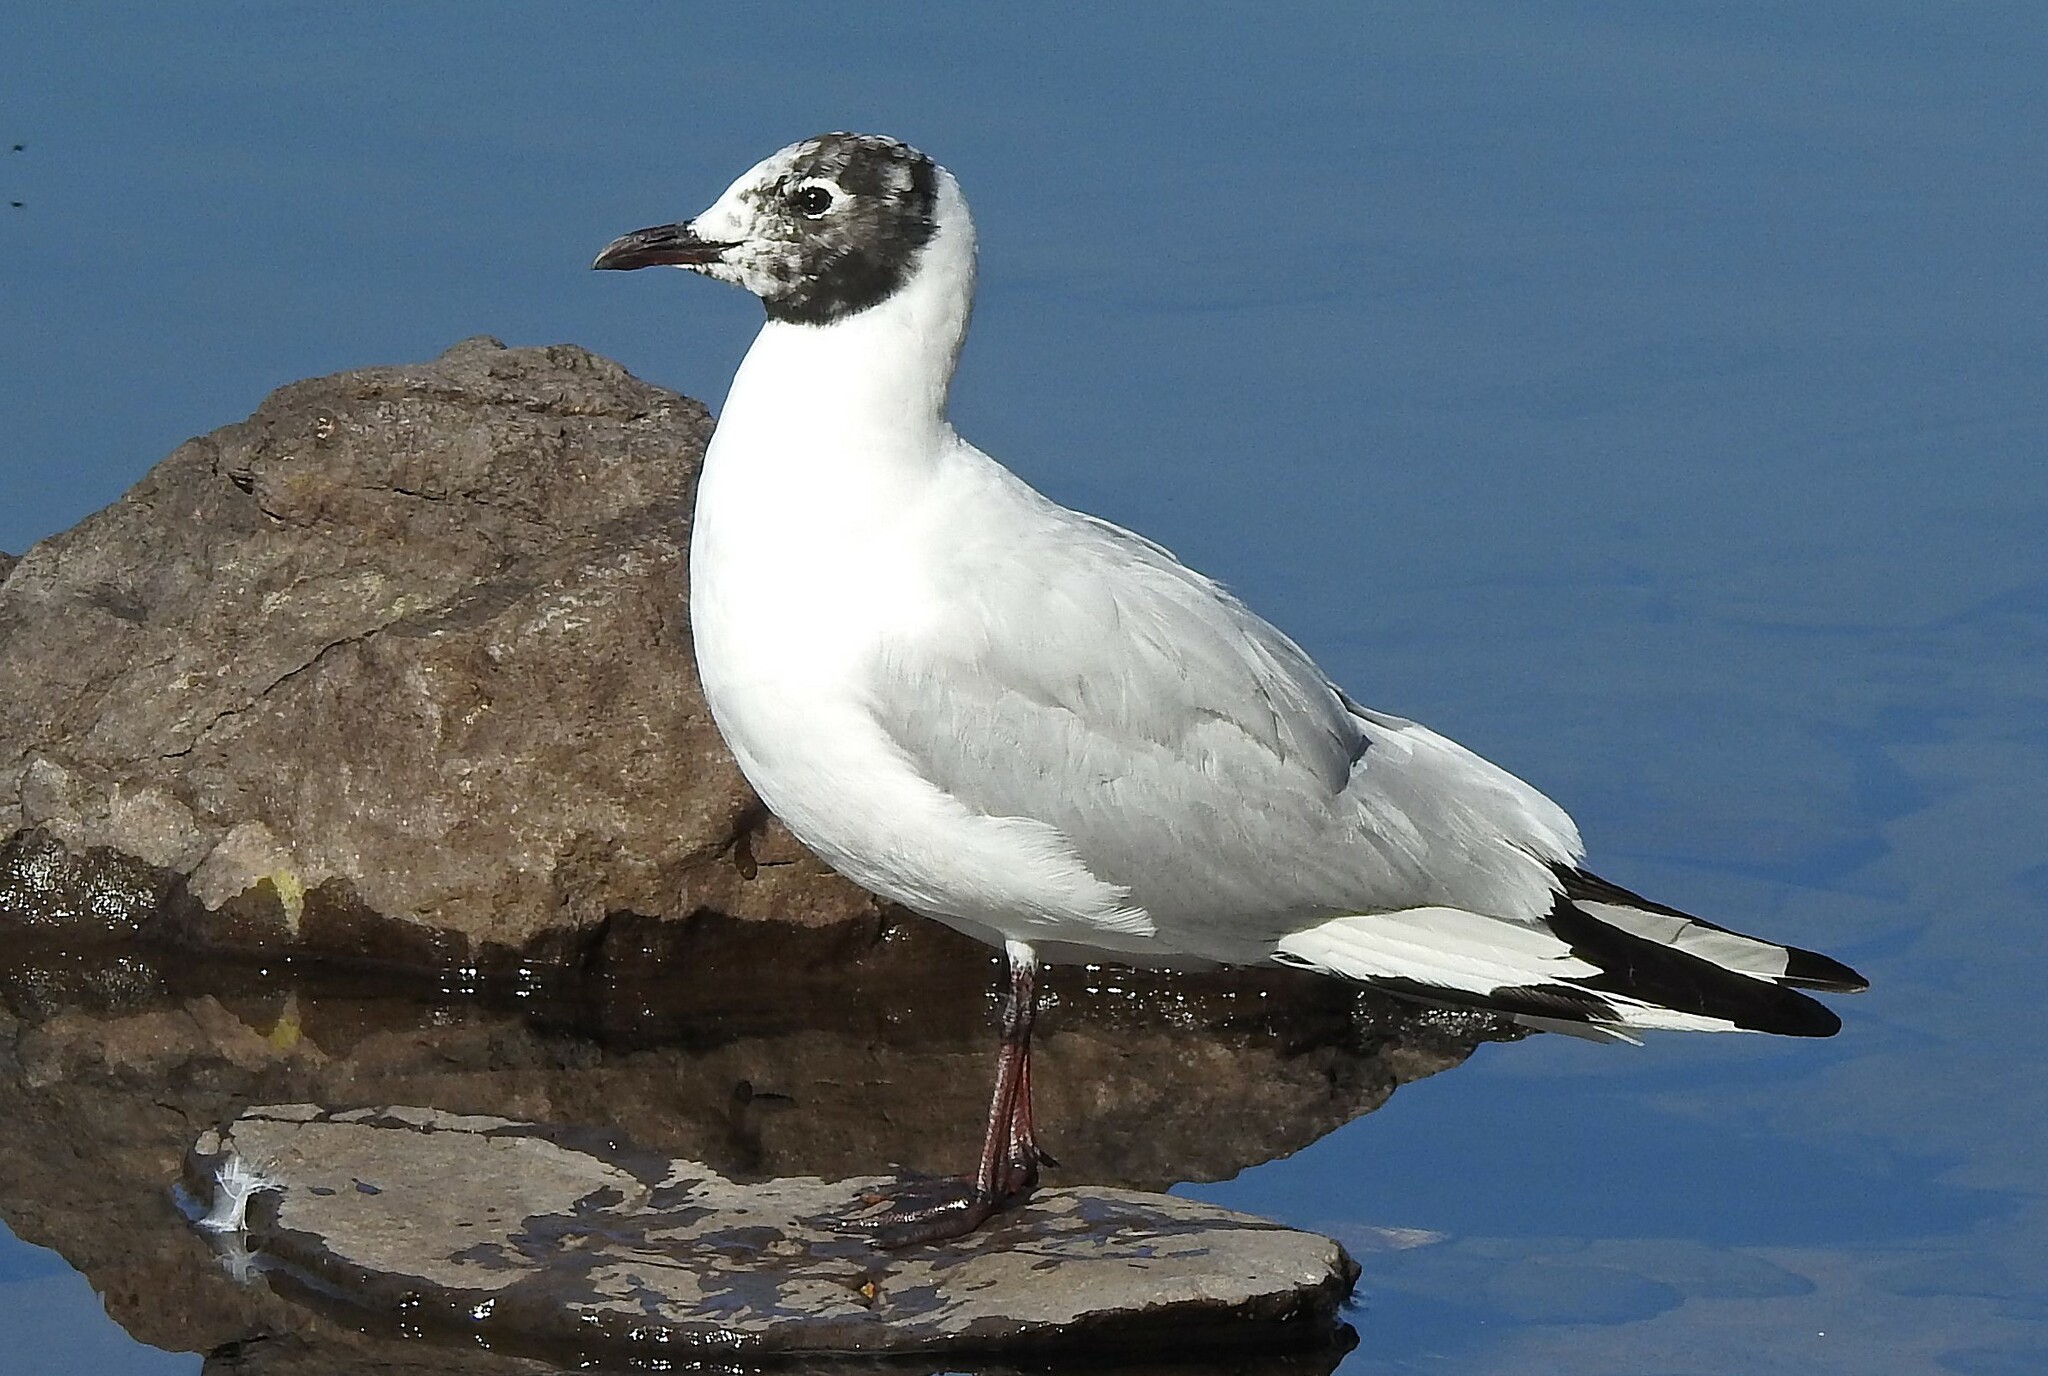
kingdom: Animalia
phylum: Chordata
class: Aves
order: Charadriiformes
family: Laridae
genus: Chroicocephalus
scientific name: Chroicocephalus serranus
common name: Andean gull
